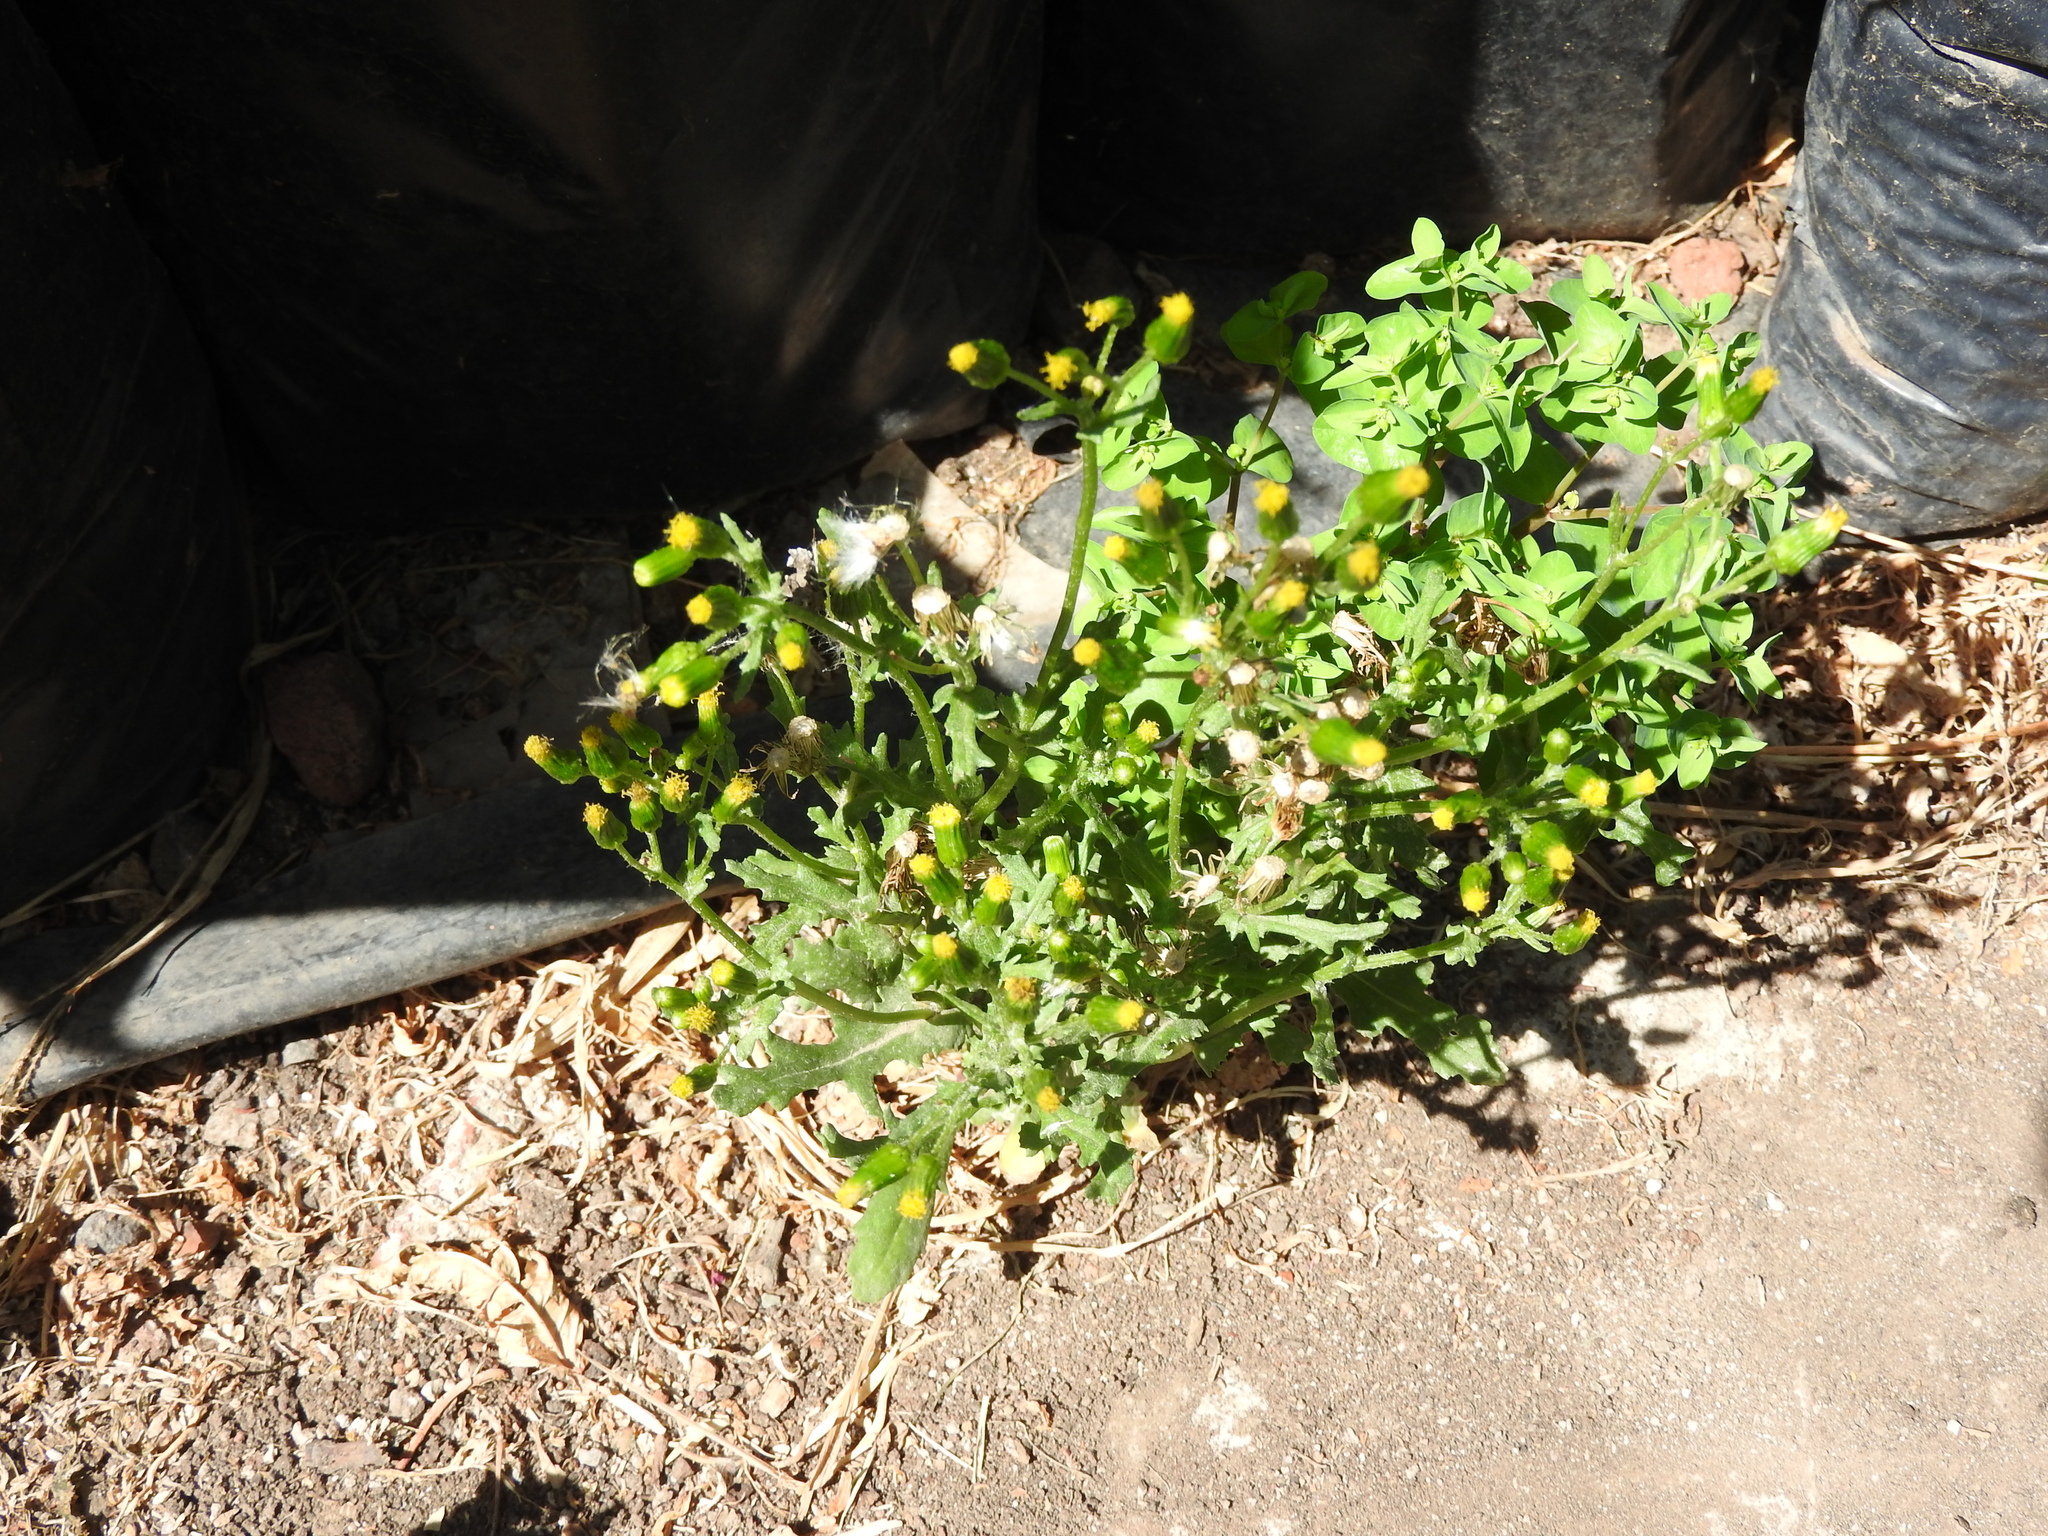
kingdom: Plantae
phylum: Tracheophyta
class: Magnoliopsida
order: Asterales
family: Asteraceae
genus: Senecio
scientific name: Senecio vulgaris
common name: Old-man-in-the-spring
